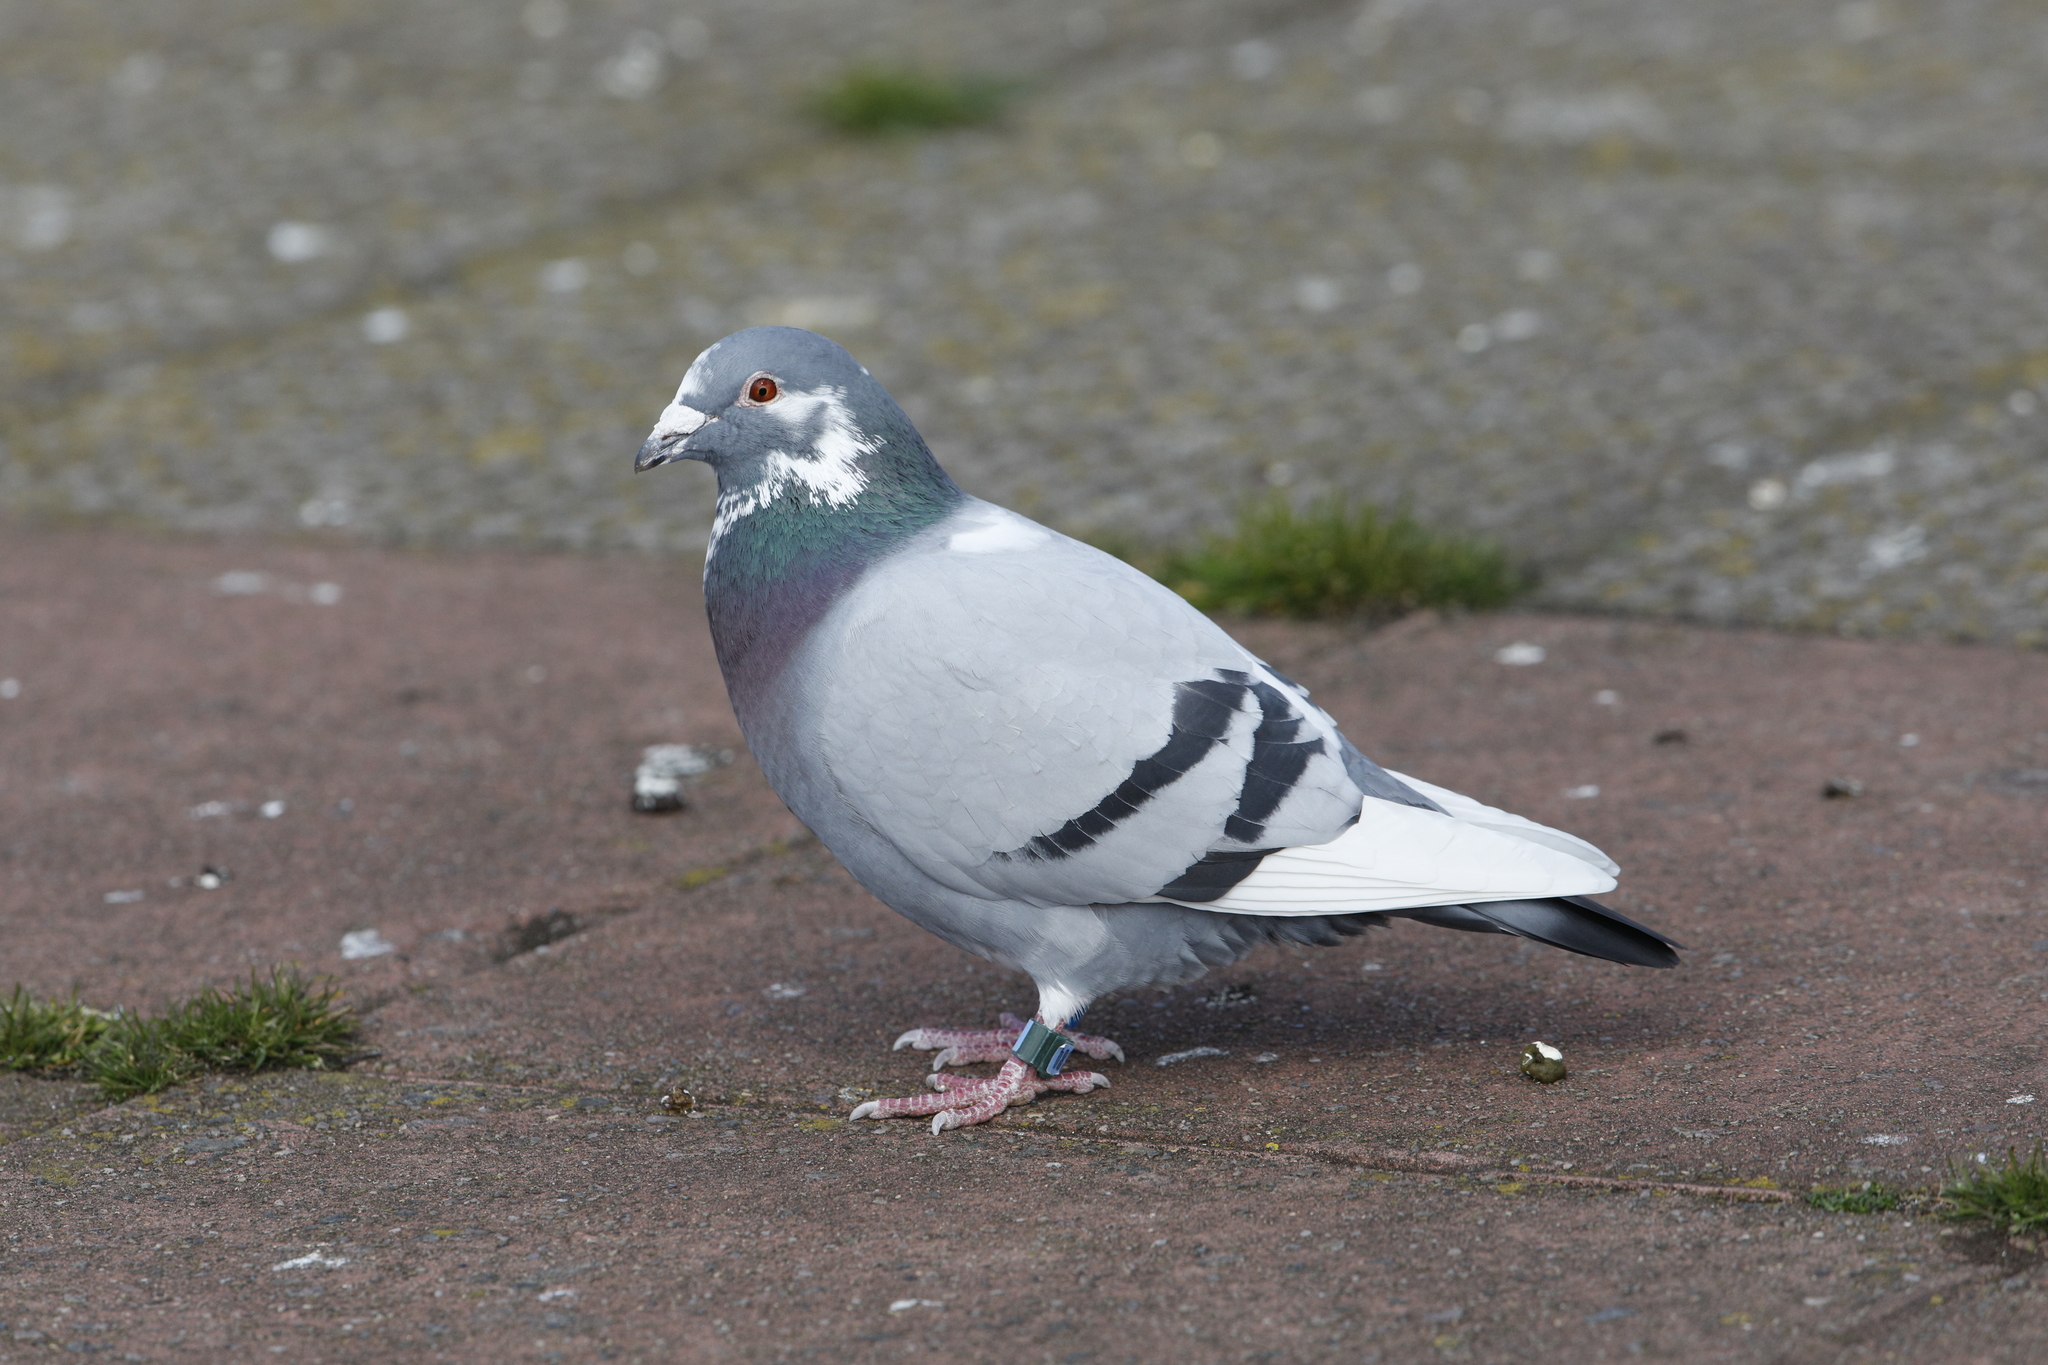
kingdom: Animalia
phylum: Chordata
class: Aves
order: Columbiformes
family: Columbidae
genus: Columba
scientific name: Columba livia
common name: Rock pigeon
